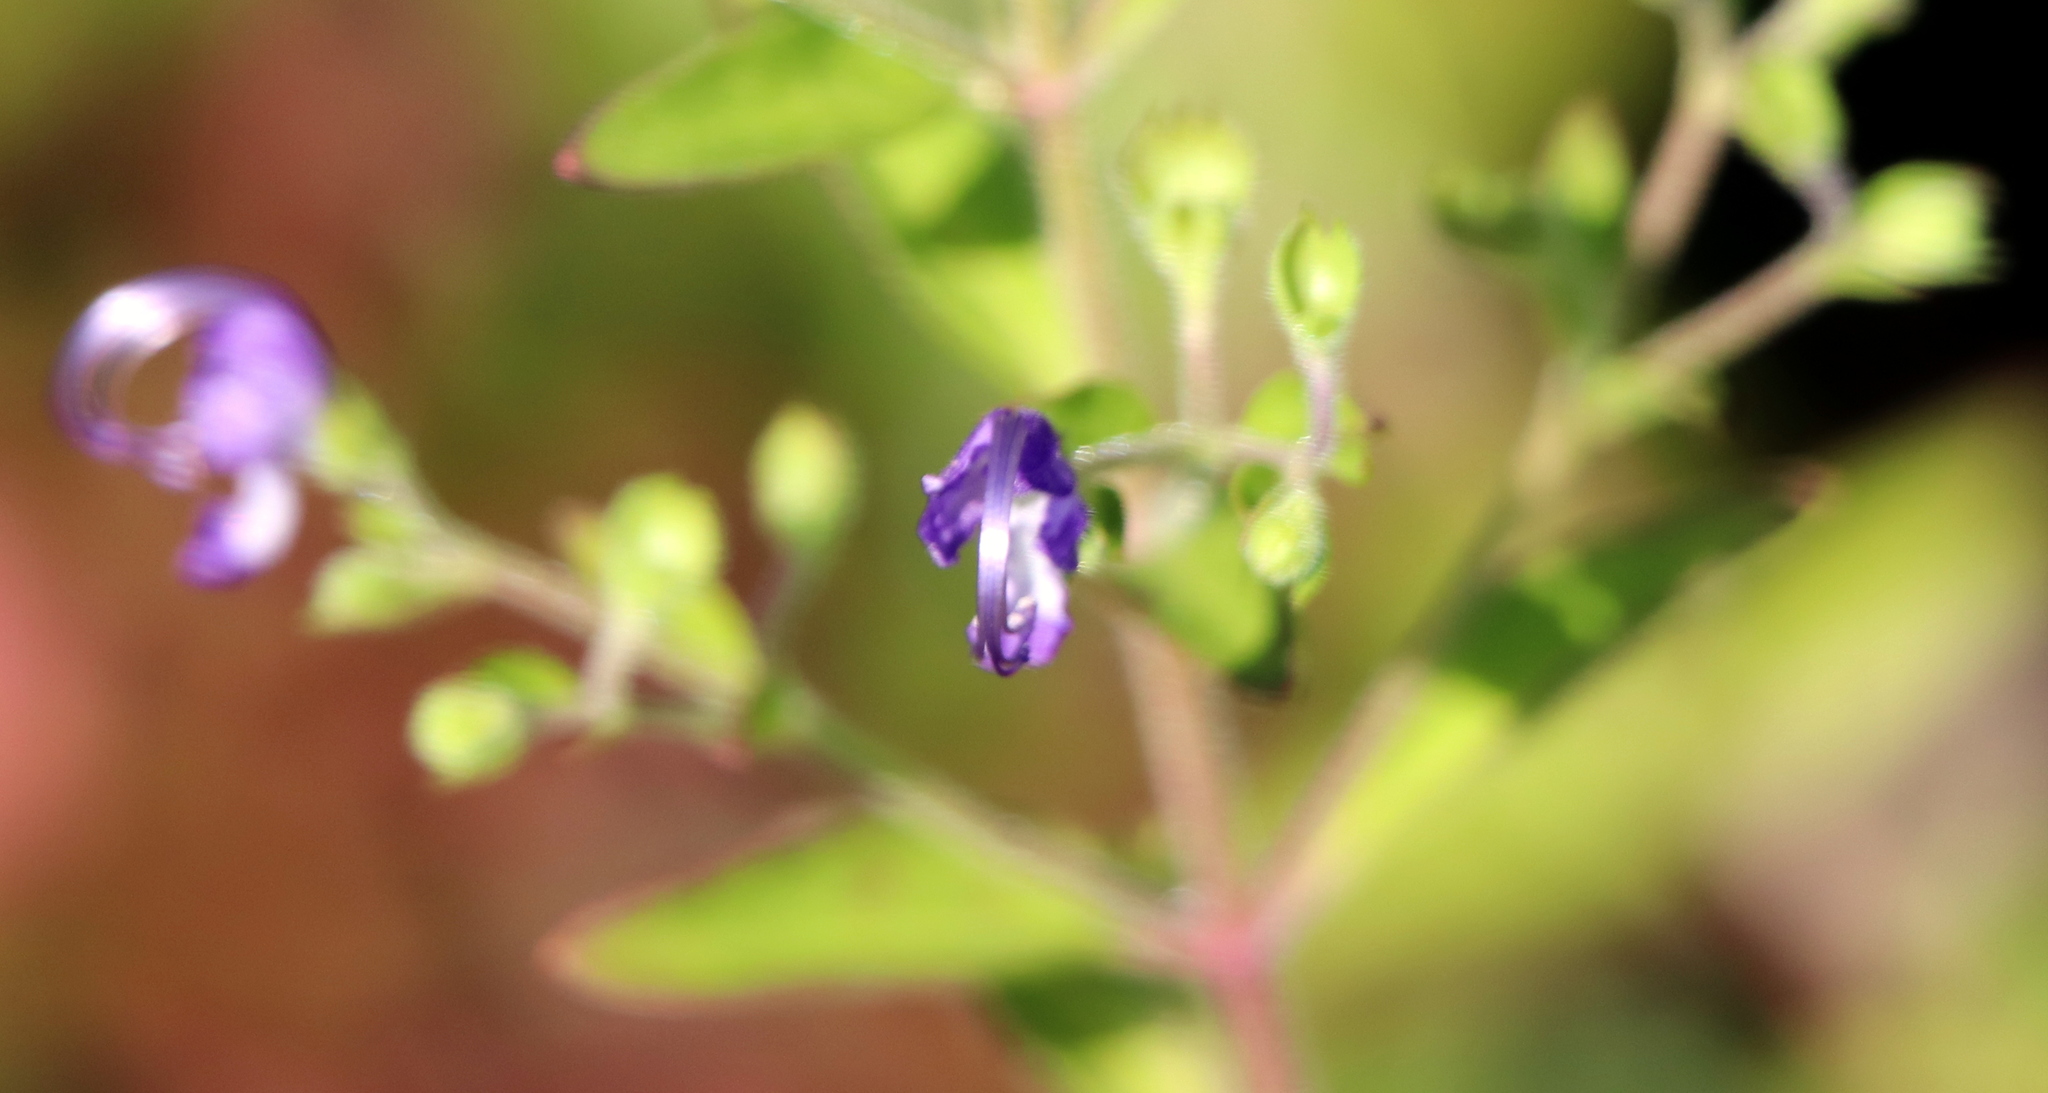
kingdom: Plantae
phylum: Tracheophyta
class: Magnoliopsida
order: Lamiales
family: Lamiaceae
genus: Trichostema
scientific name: Trichostema dichotomum
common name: Bastard pennyroyal
